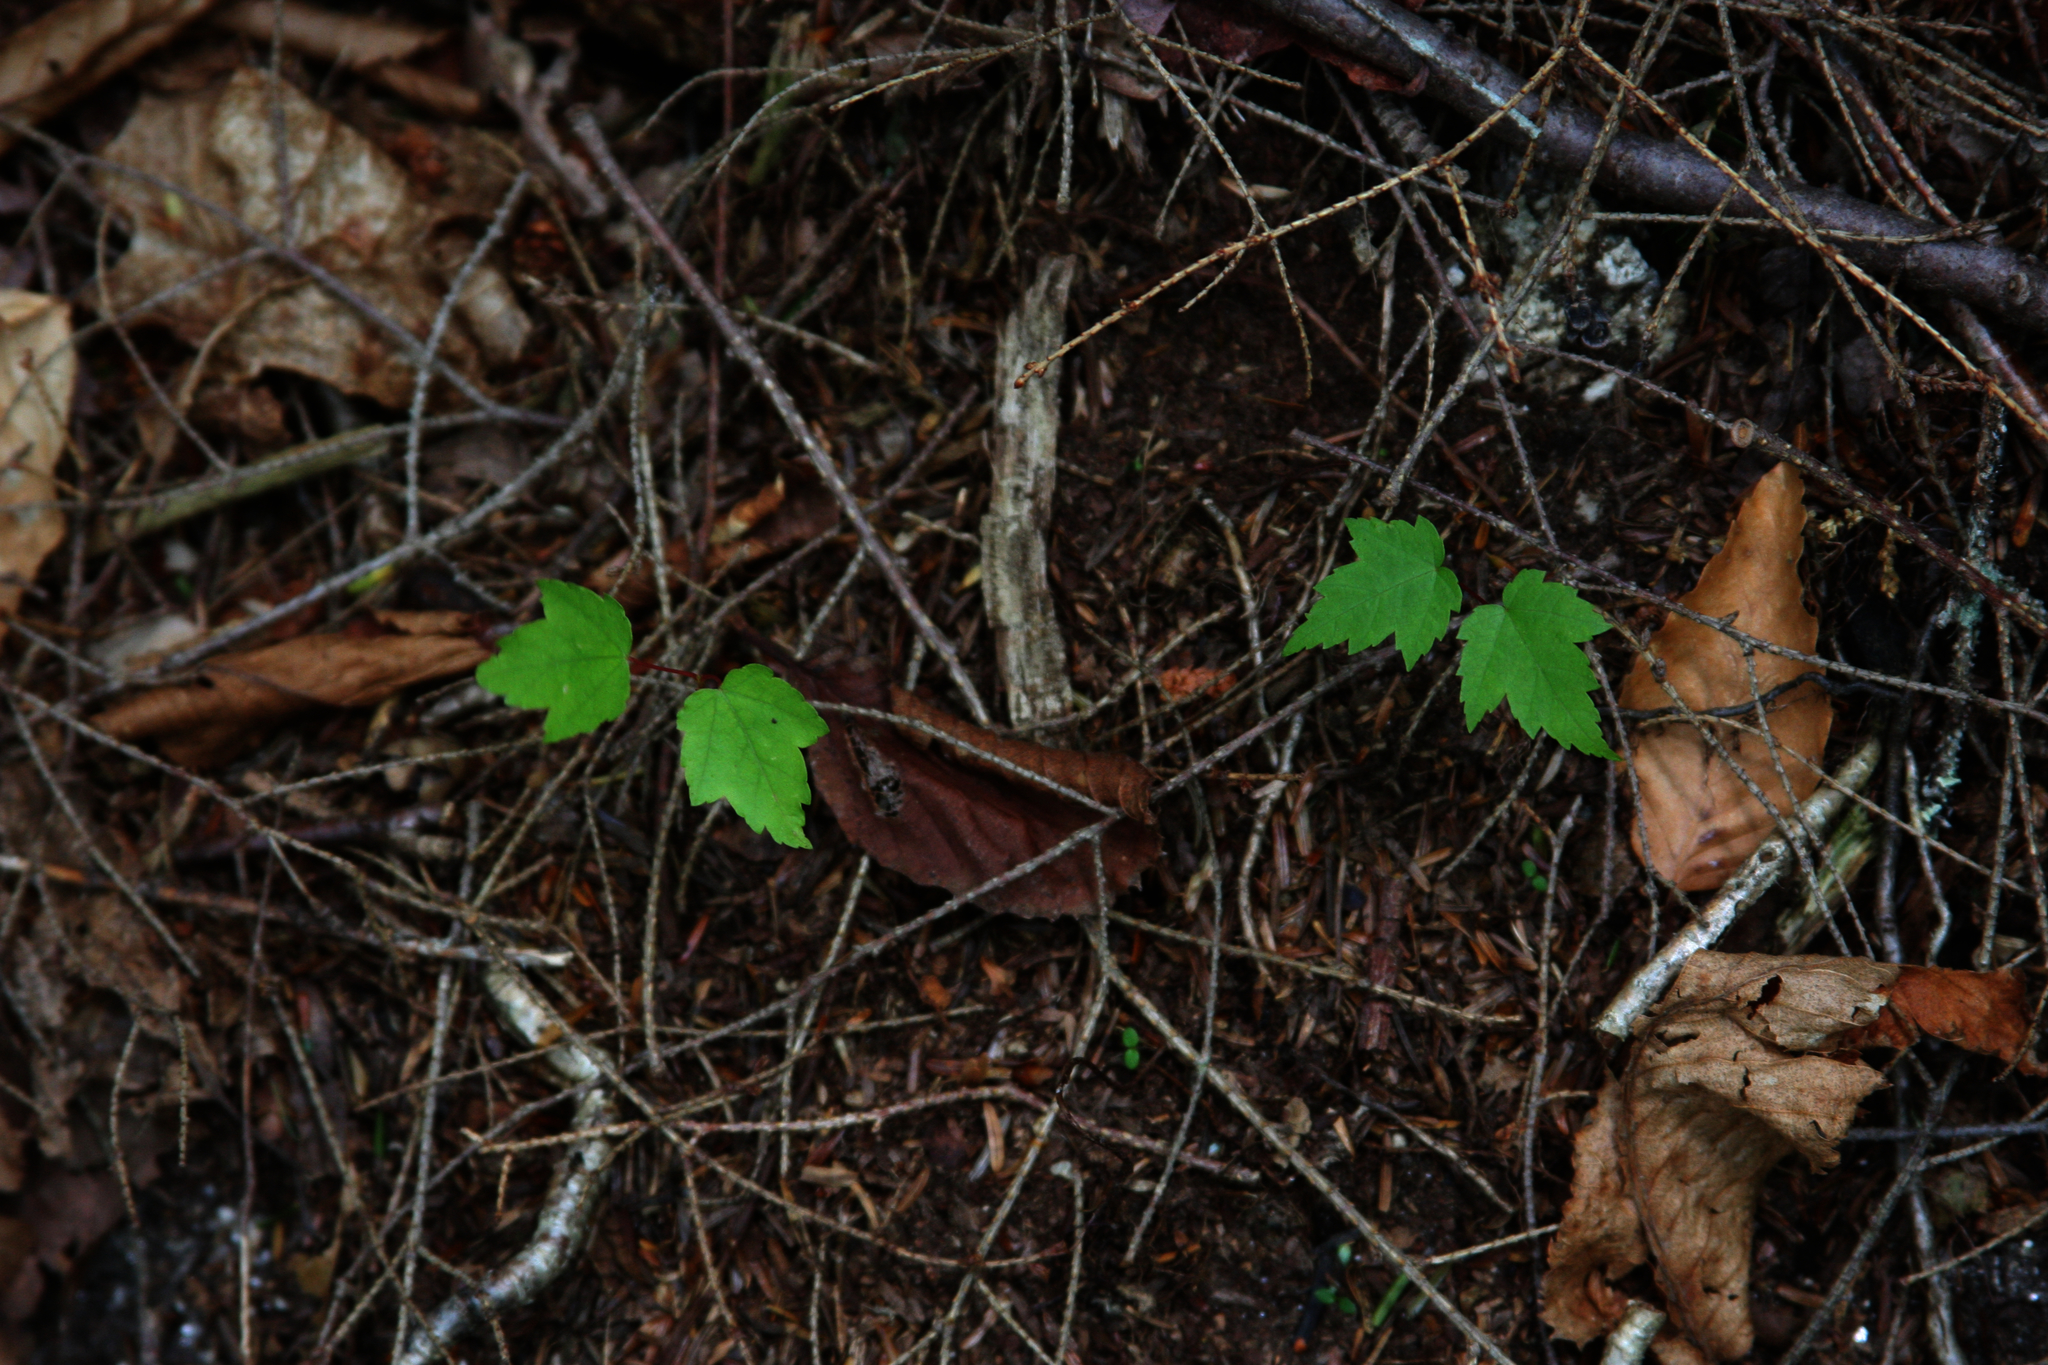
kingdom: Plantae
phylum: Tracheophyta
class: Magnoliopsida
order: Sapindales
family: Sapindaceae
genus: Acer
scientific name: Acer rubrum
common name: Red maple
